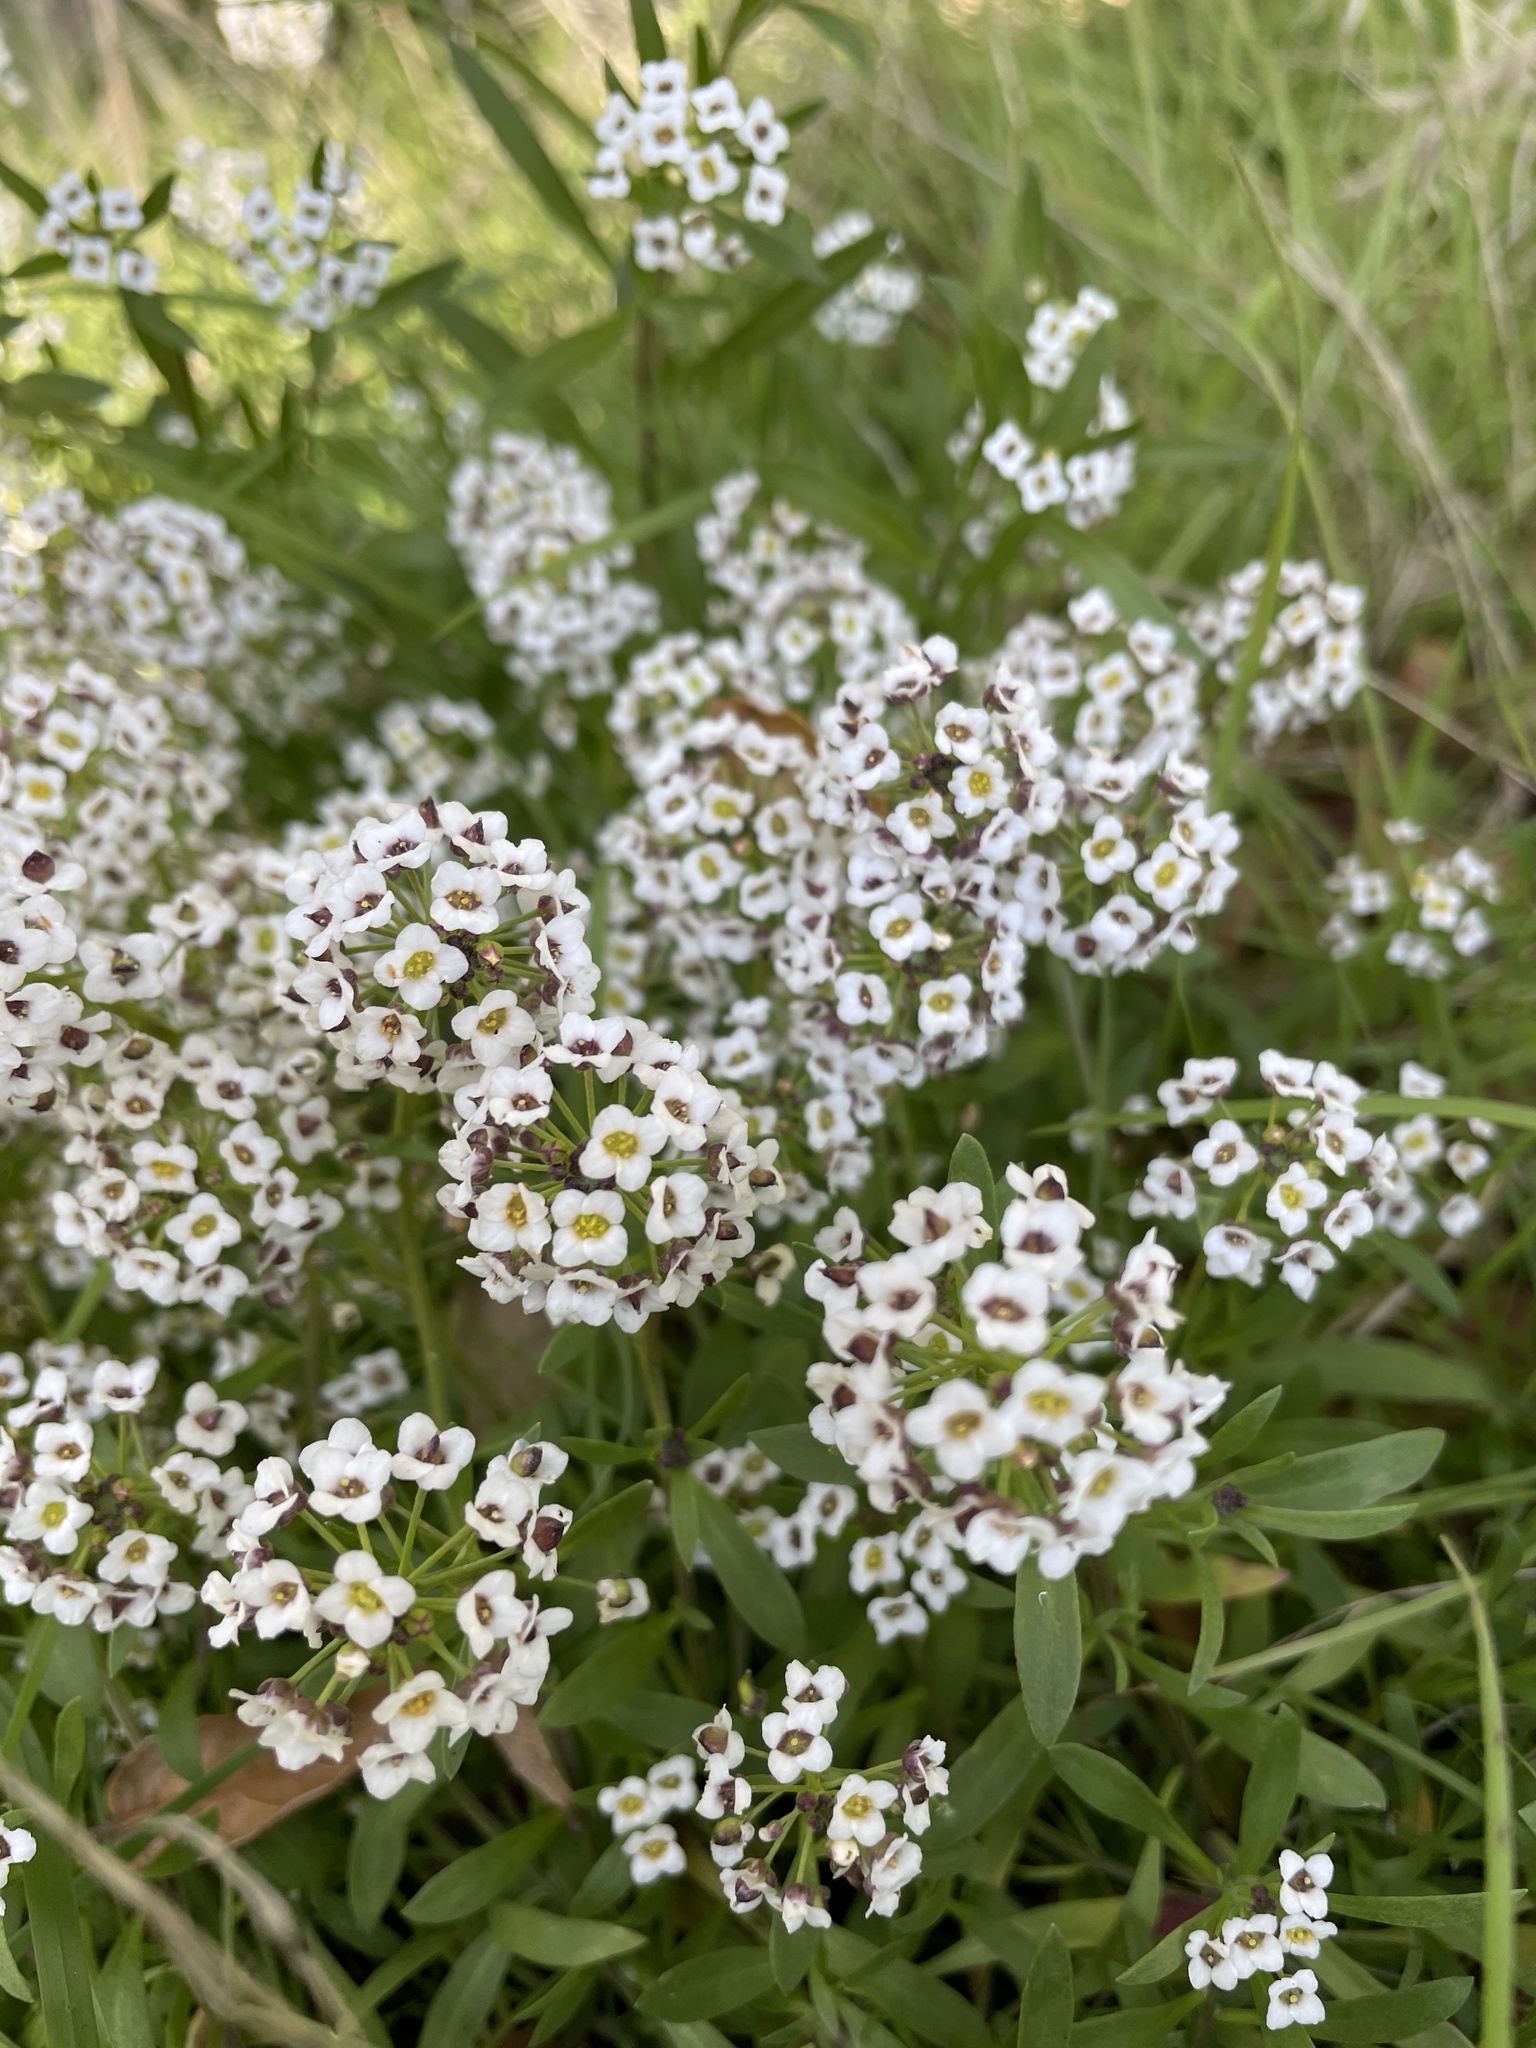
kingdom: Plantae
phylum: Tracheophyta
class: Magnoliopsida
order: Brassicales
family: Brassicaceae
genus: Lobularia
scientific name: Lobularia maritima
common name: Sweet alison
